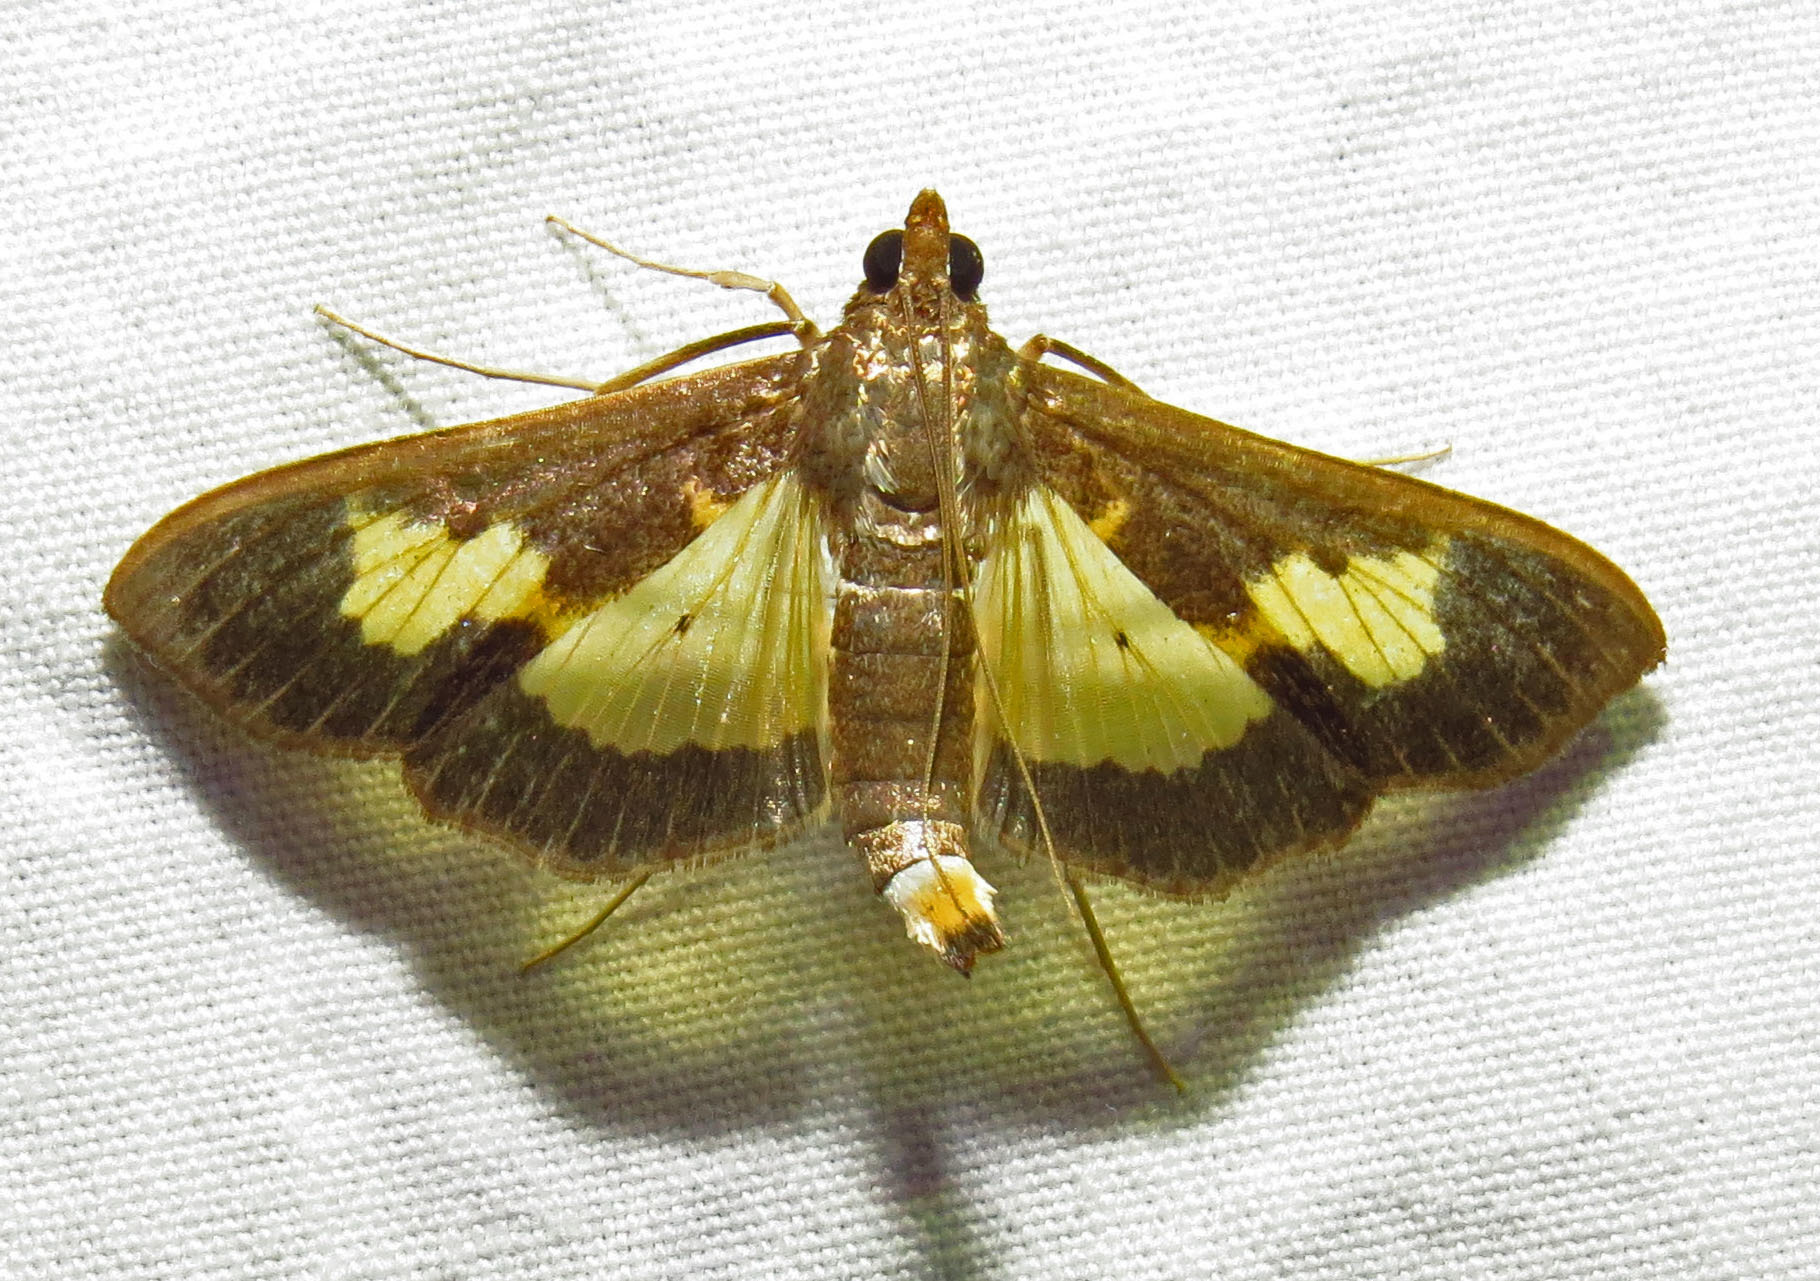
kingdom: Animalia
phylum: Arthropoda
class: Insecta
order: Lepidoptera
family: Crambidae
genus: Cryptographis
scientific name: Cryptographis nitidalis
